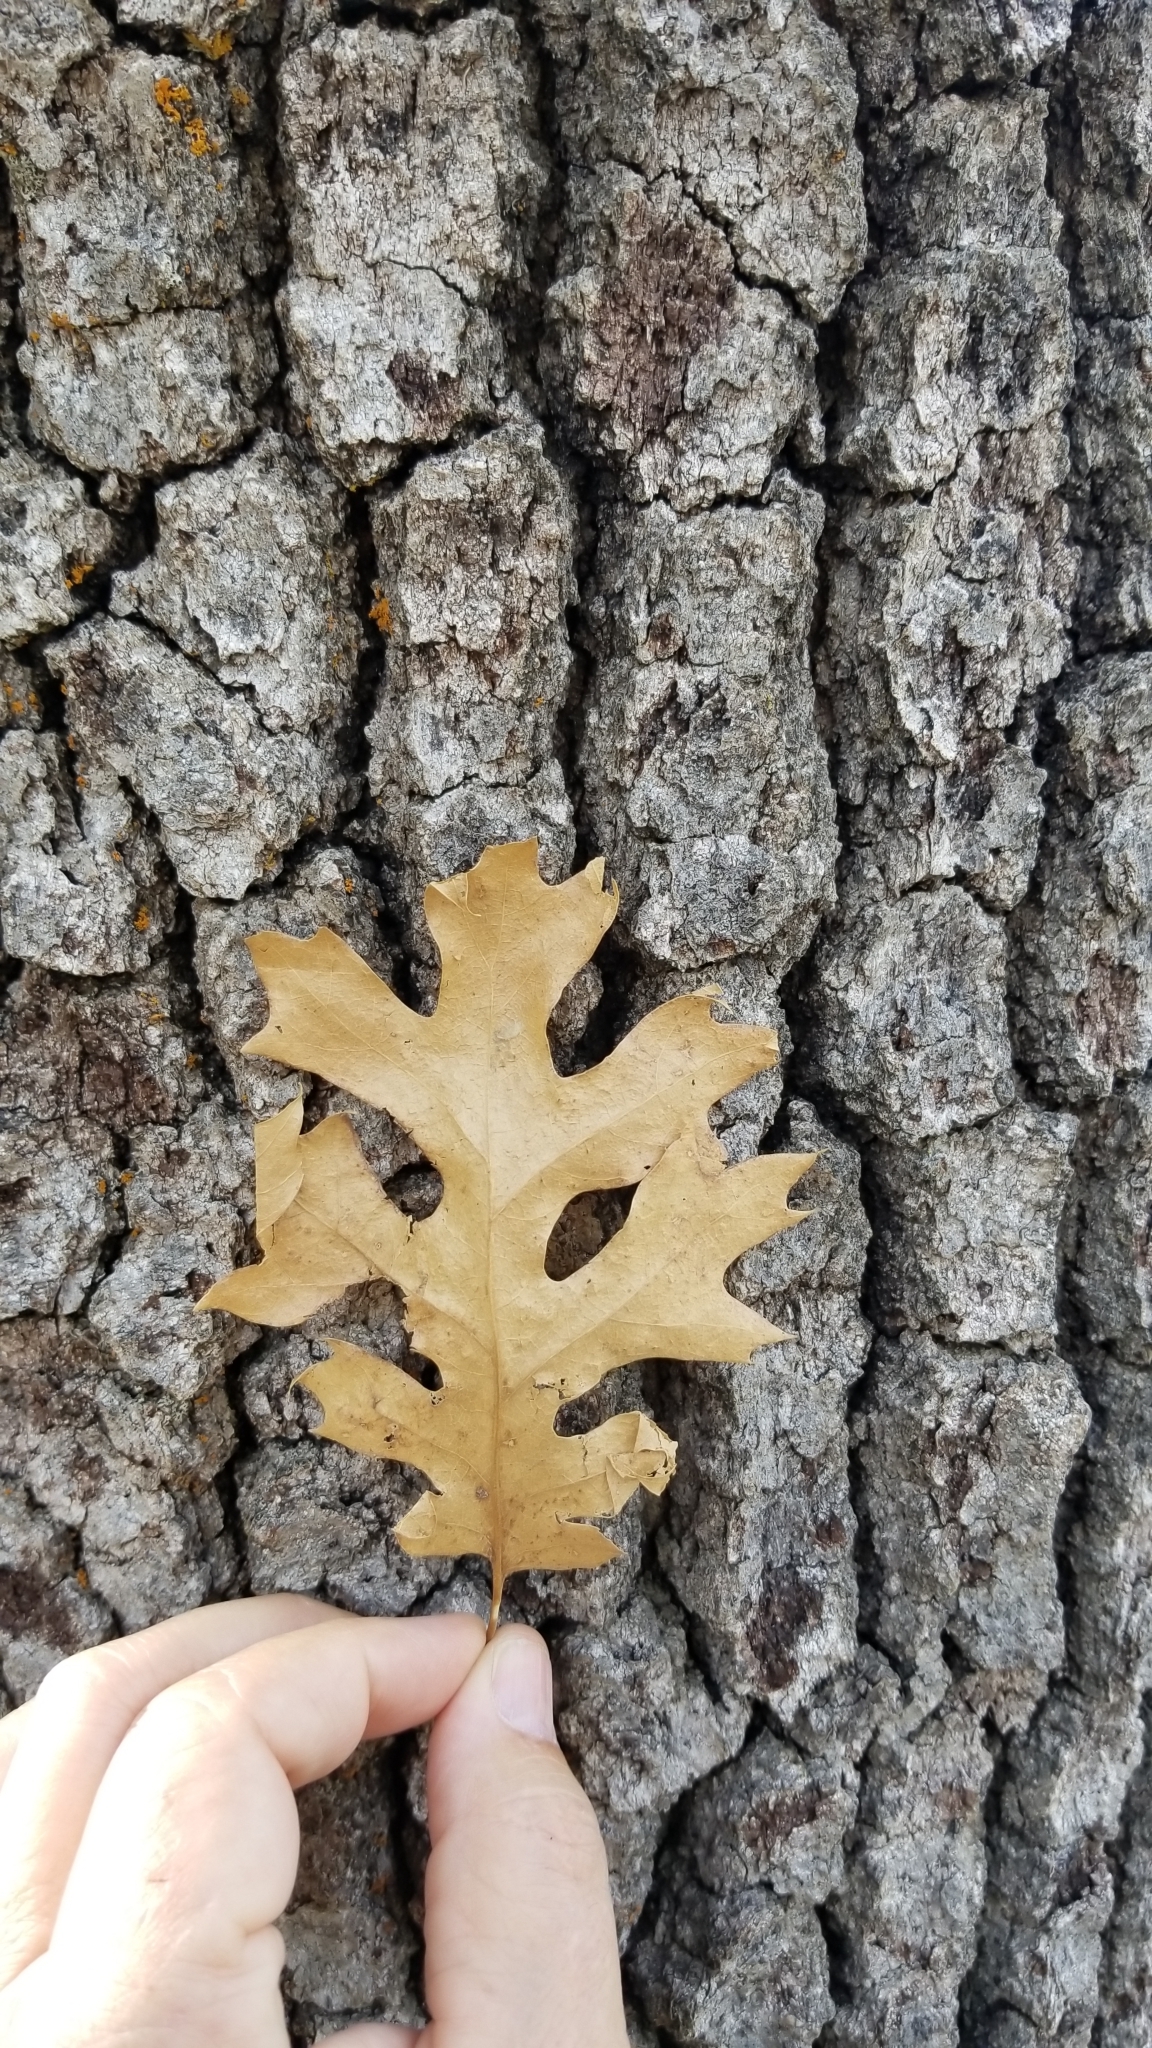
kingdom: Plantae
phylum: Tracheophyta
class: Magnoliopsida
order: Fagales
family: Fagaceae
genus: Quercus
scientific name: Quercus kelloggii
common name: California black oak
